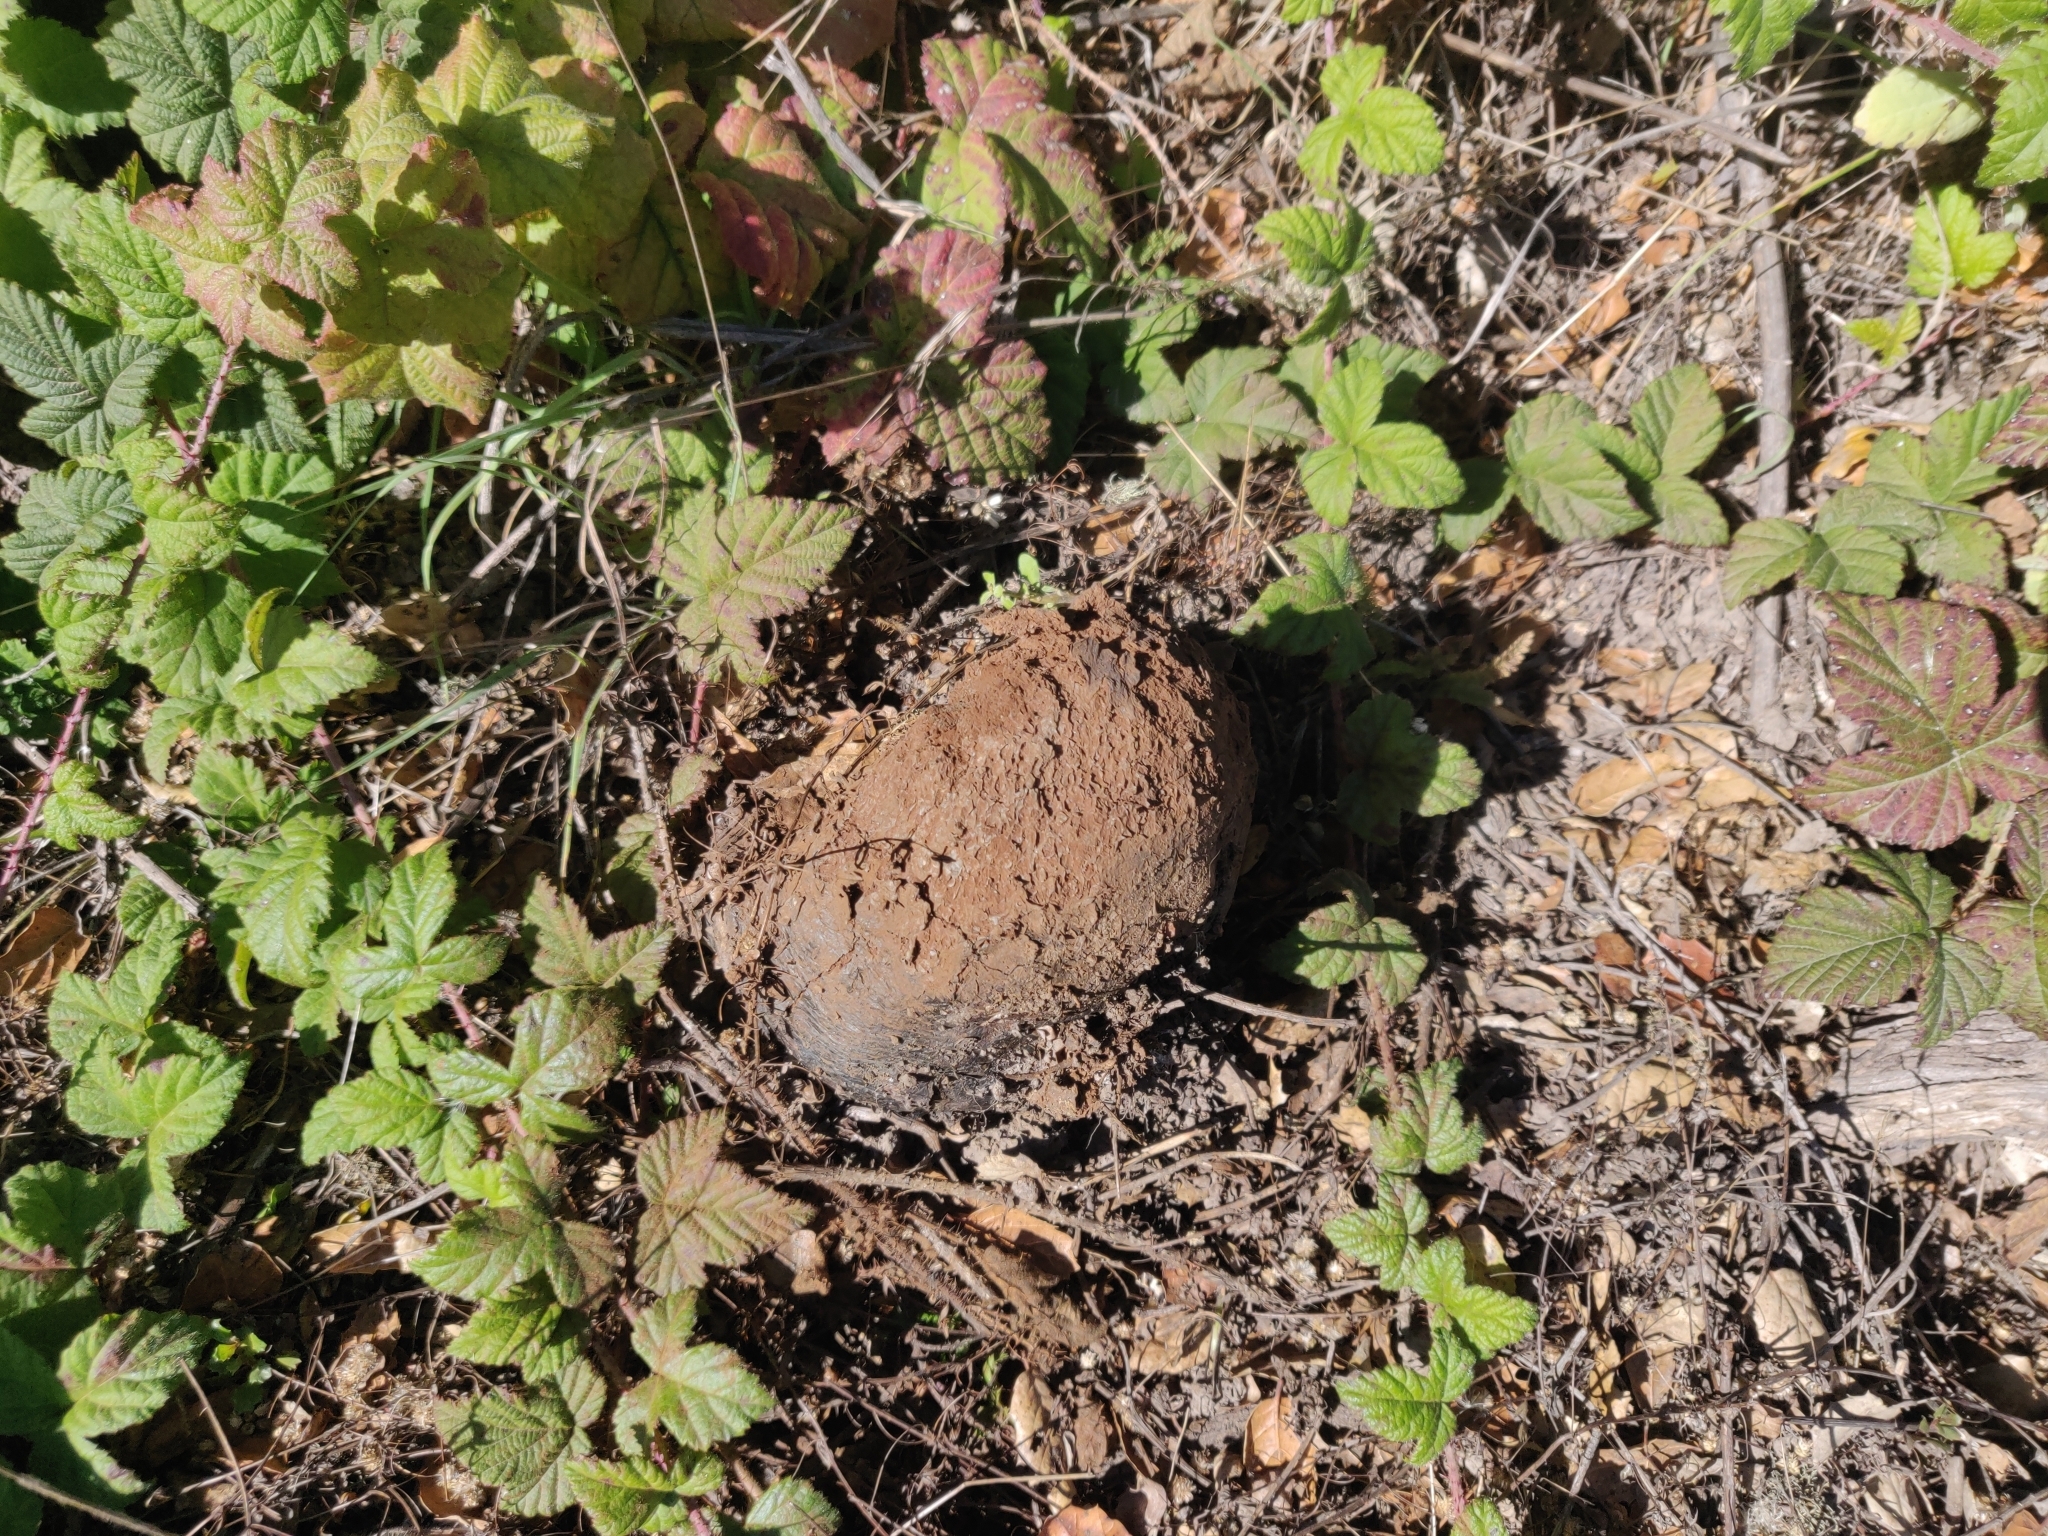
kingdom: Fungi
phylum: Basidiomycota
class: Agaricomycetes
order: Boletales
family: Sclerodermataceae
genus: Pisolithus
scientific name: Pisolithus tinctorius
